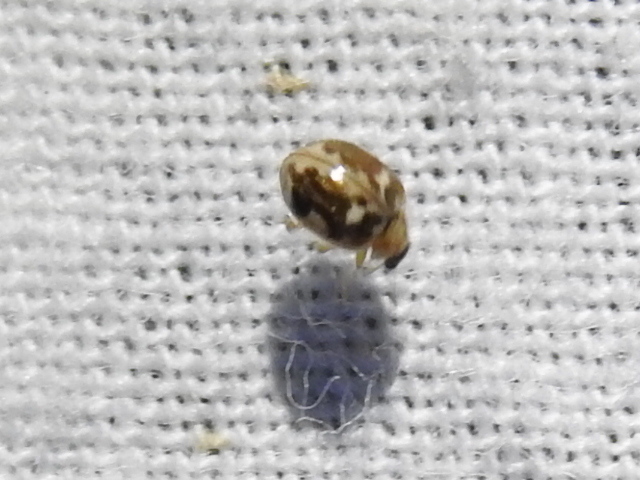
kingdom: Animalia
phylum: Arthropoda
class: Insecta
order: Coleoptera
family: Coccinellidae
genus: Psyllobora
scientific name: Psyllobora renifer
